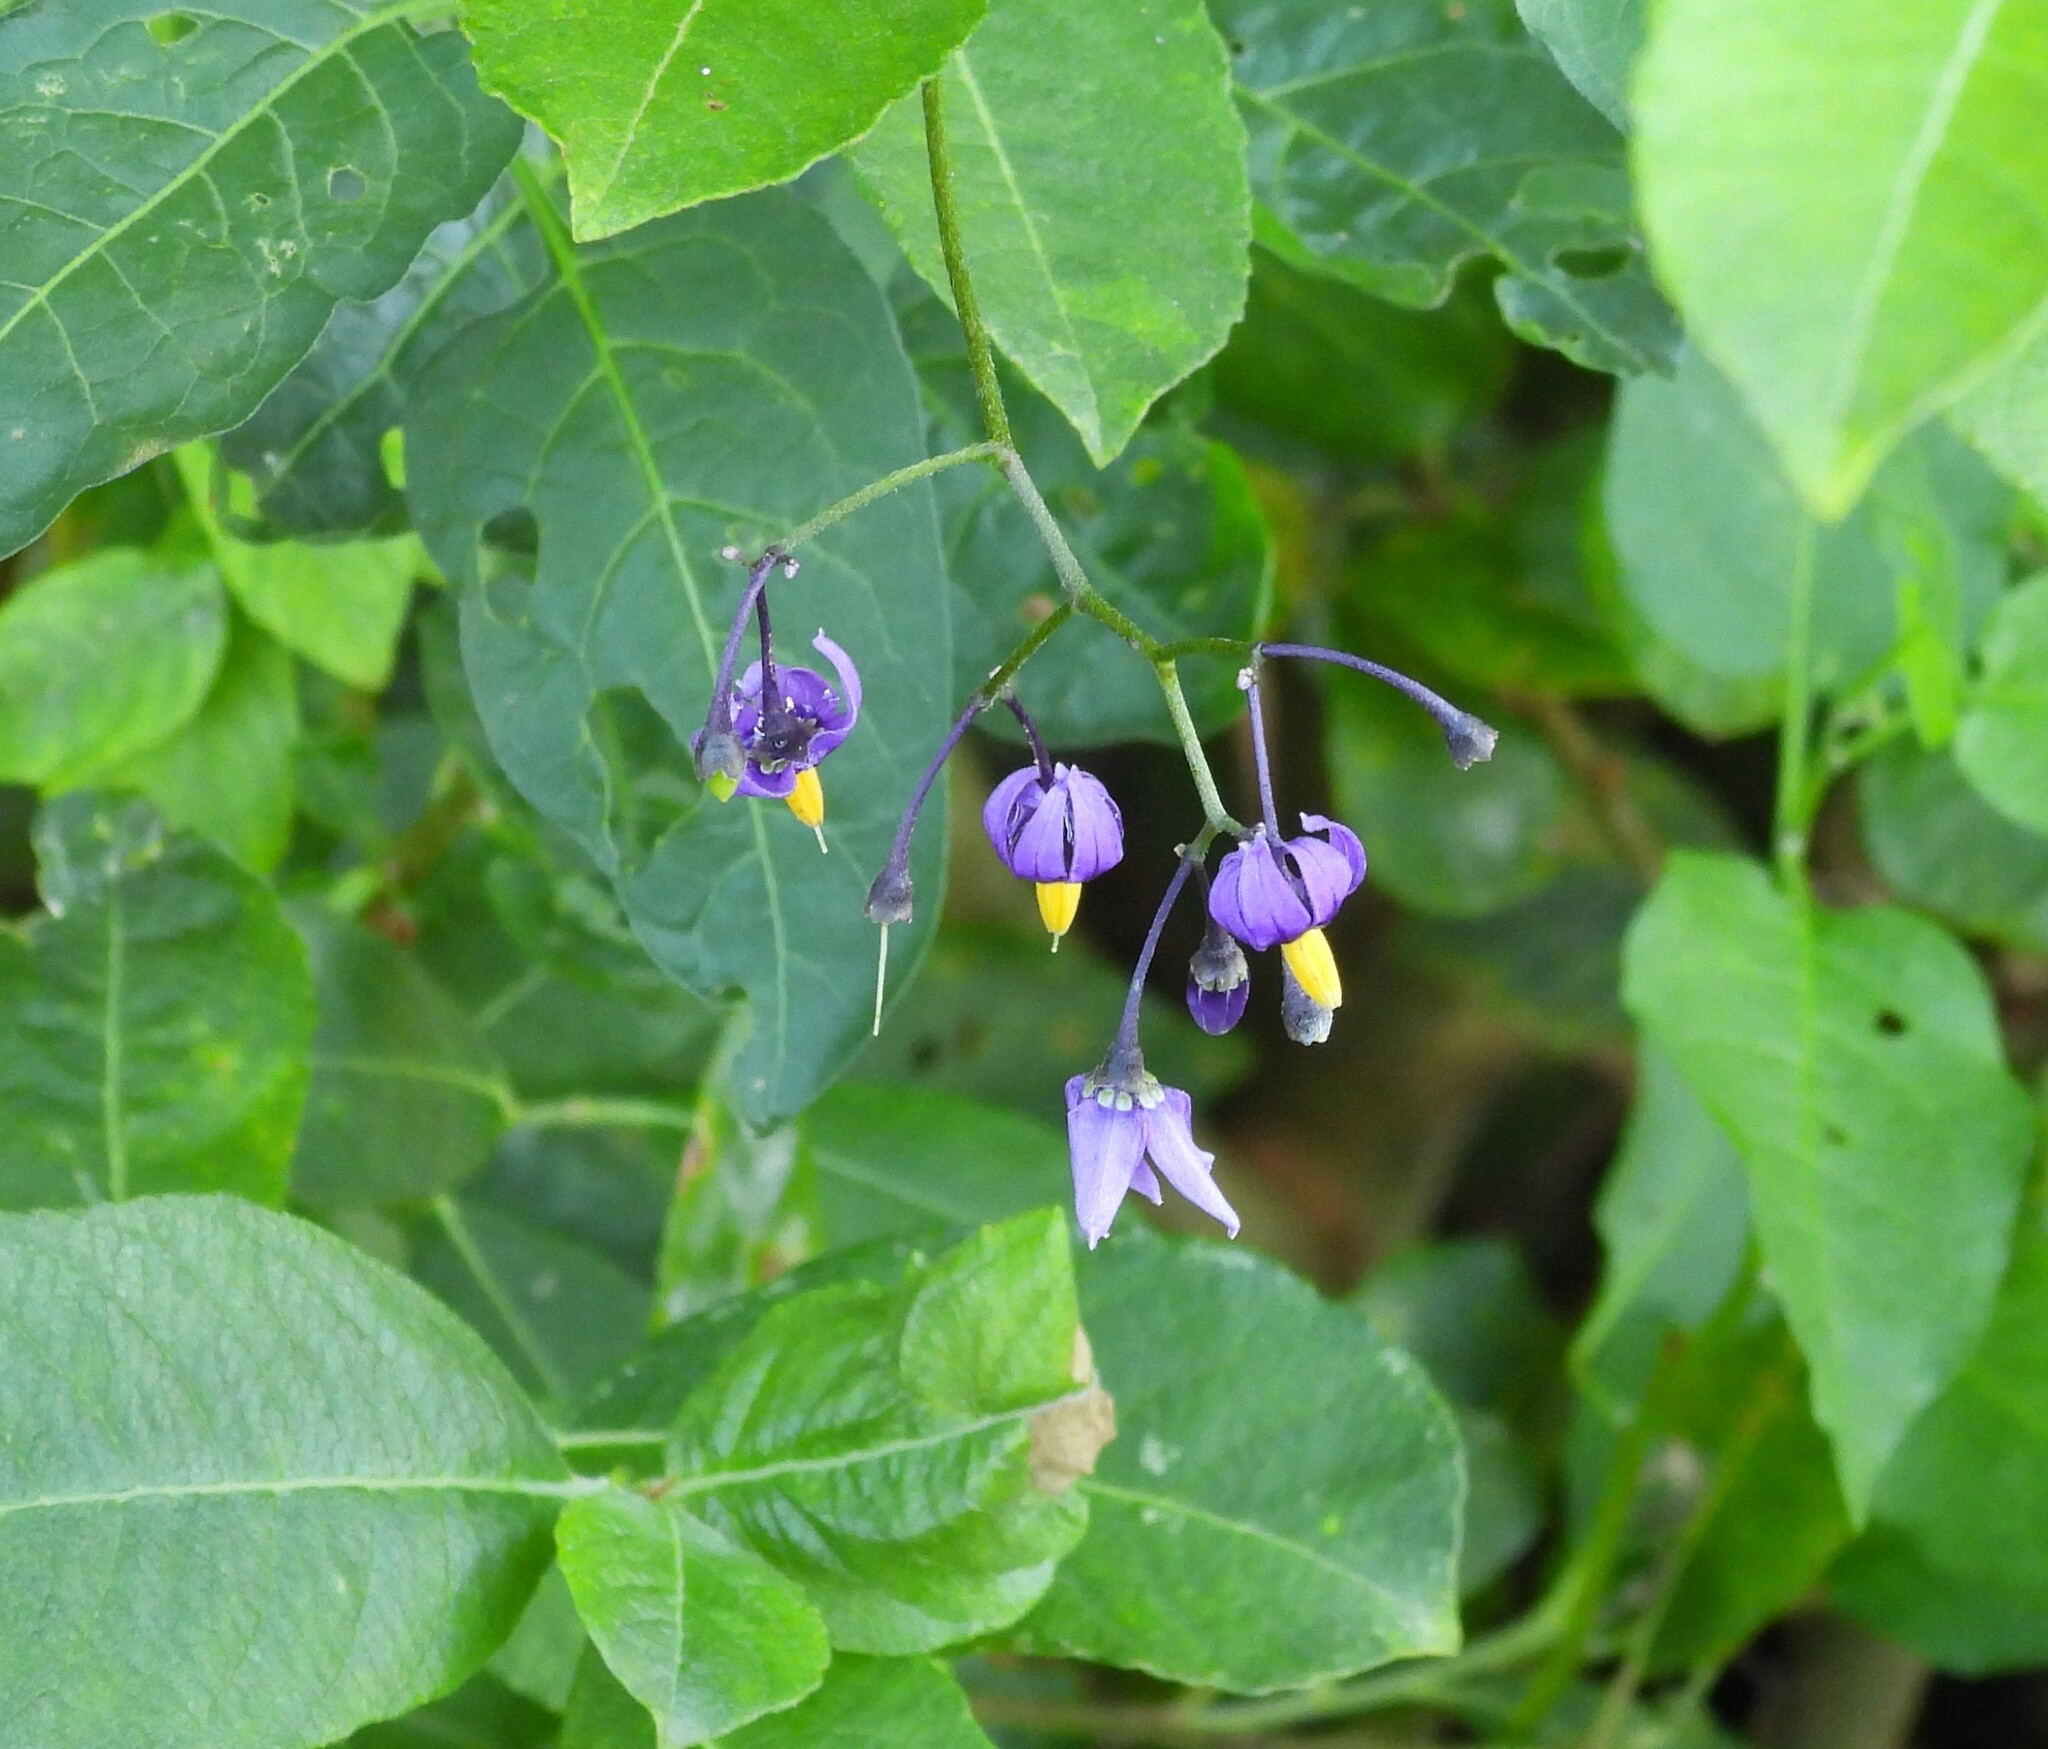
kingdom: Plantae
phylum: Tracheophyta
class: Magnoliopsida
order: Solanales
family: Solanaceae
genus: Solanum
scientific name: Solanum dulcamara
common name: Climbing nightshade
